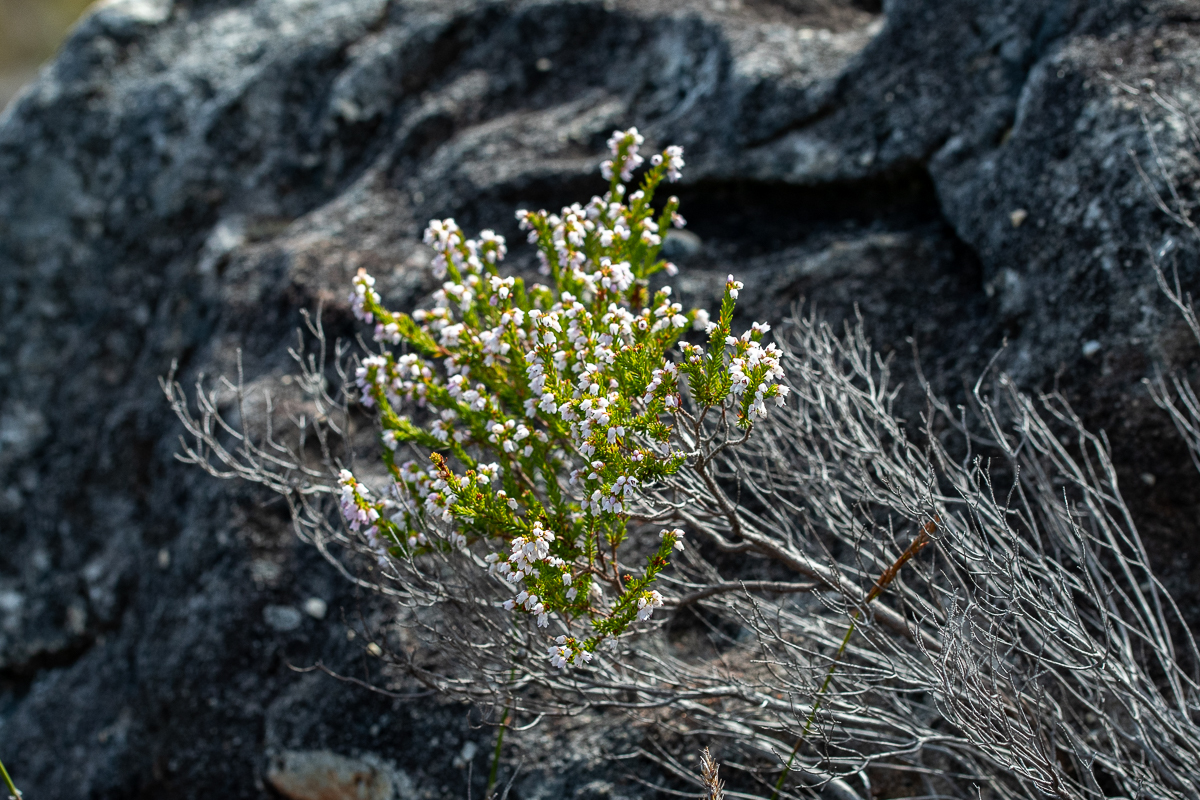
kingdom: Plantae
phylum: Tracheophyta
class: Magnoliopsida
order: Ericales
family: Ericaceae
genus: Erica
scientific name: Erica quadrangularis
